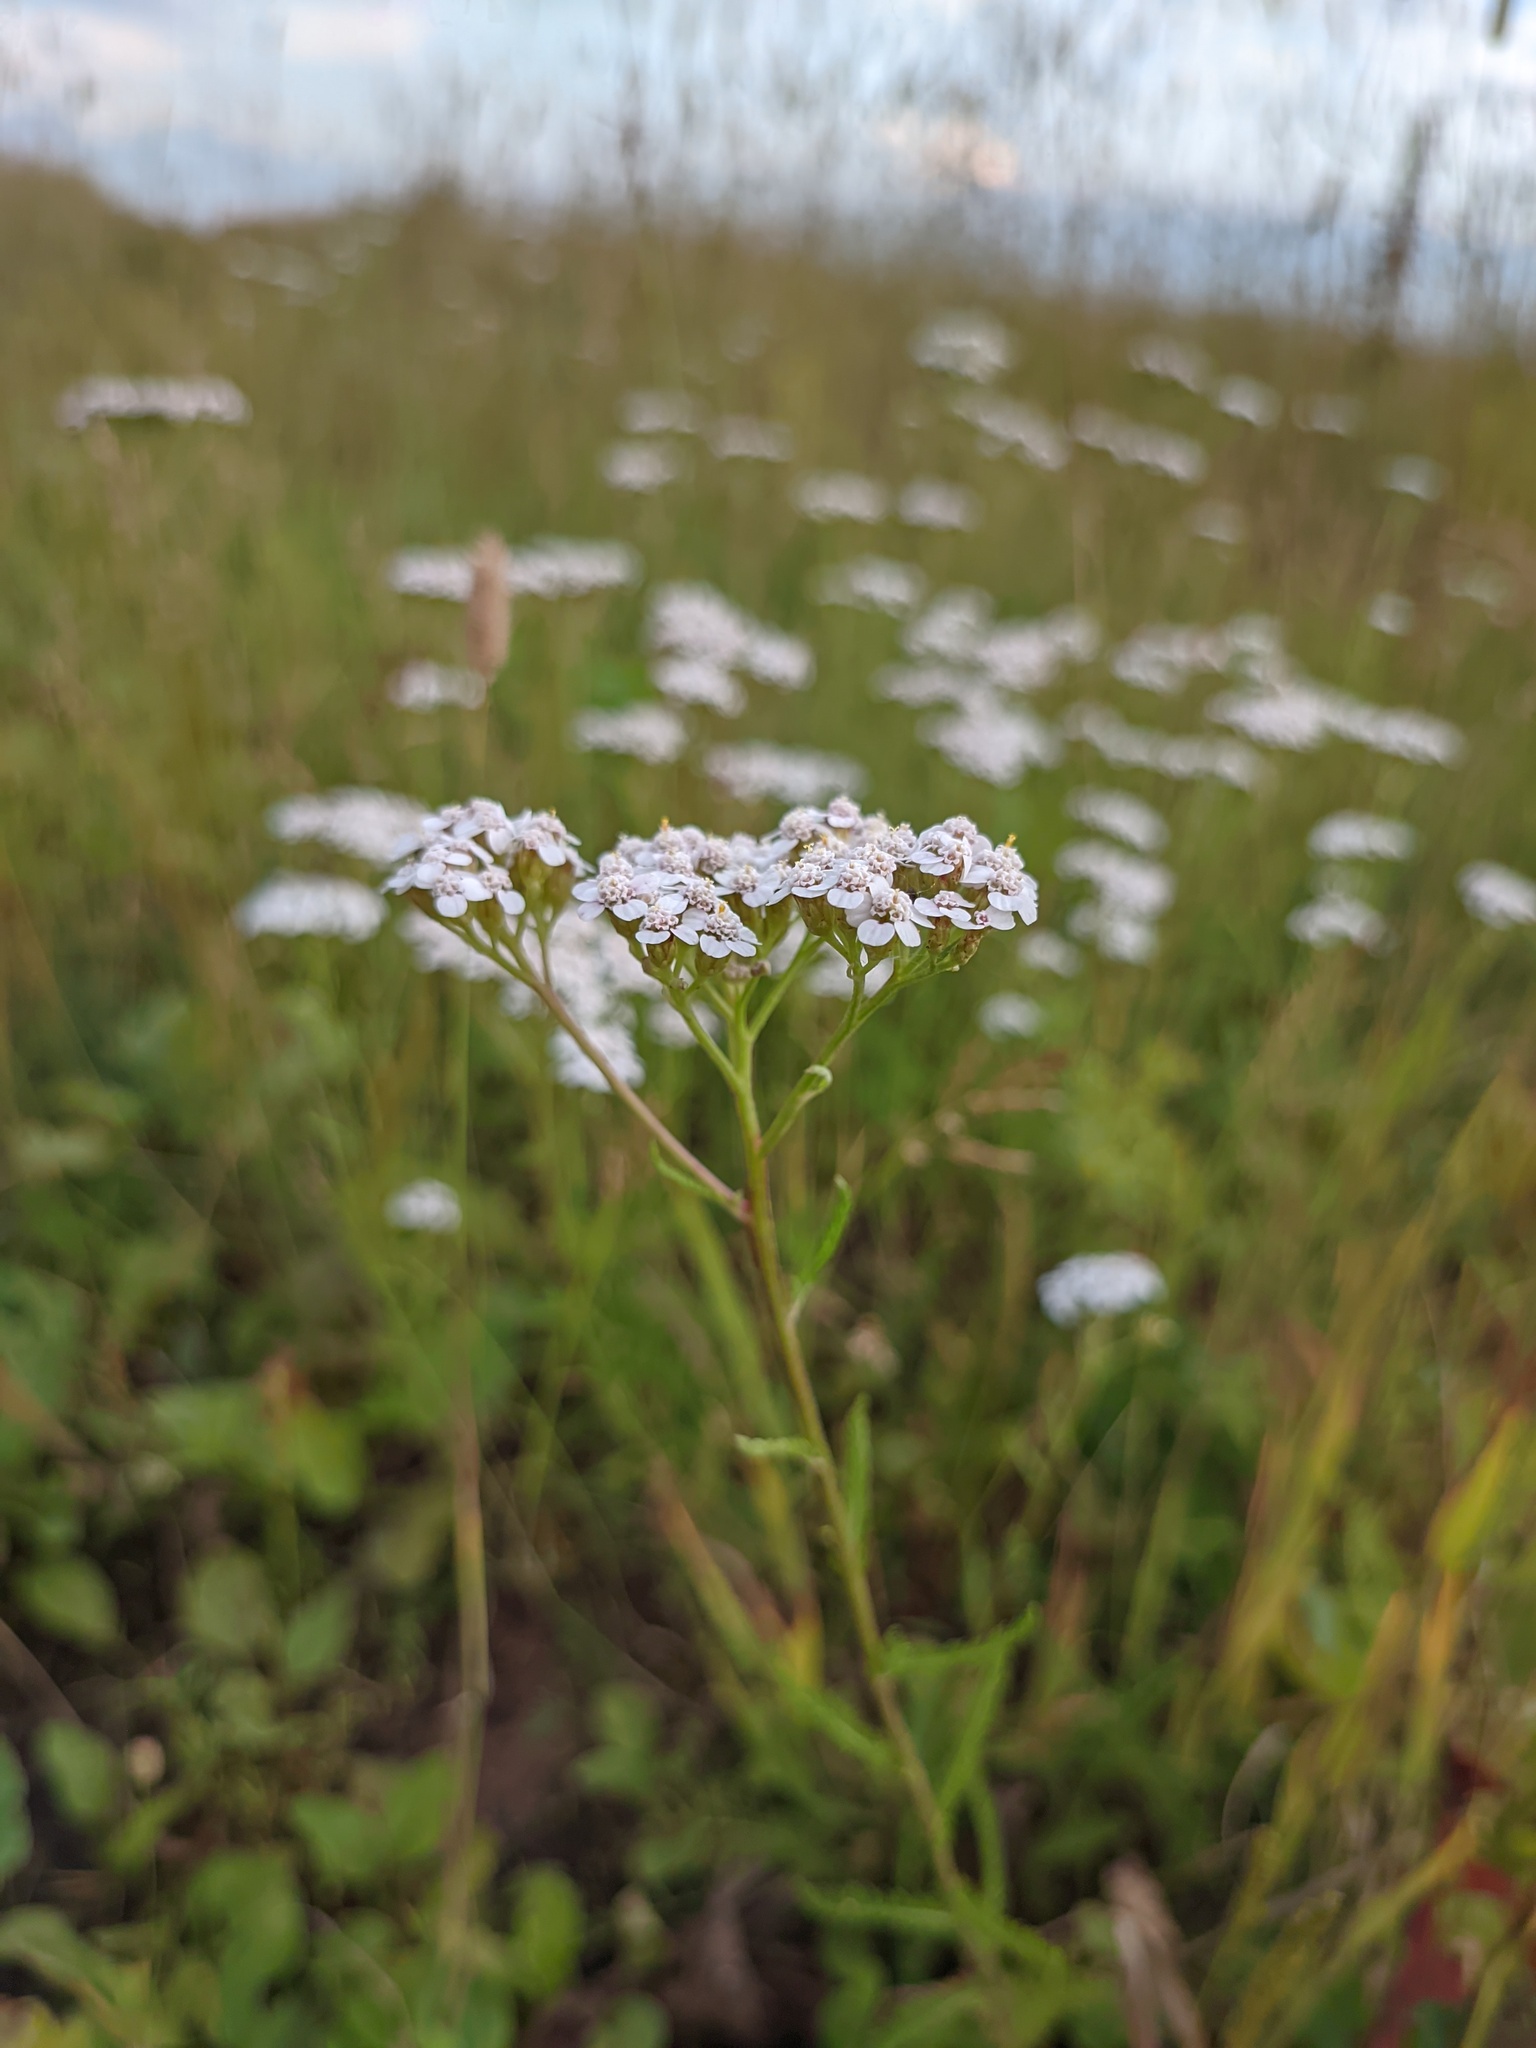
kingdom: Plantae
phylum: Tracheophyta
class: Magnoliopsida
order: Asterales
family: Asteraceae
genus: Achillea
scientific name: Achillea millefolium
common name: Yarrow
